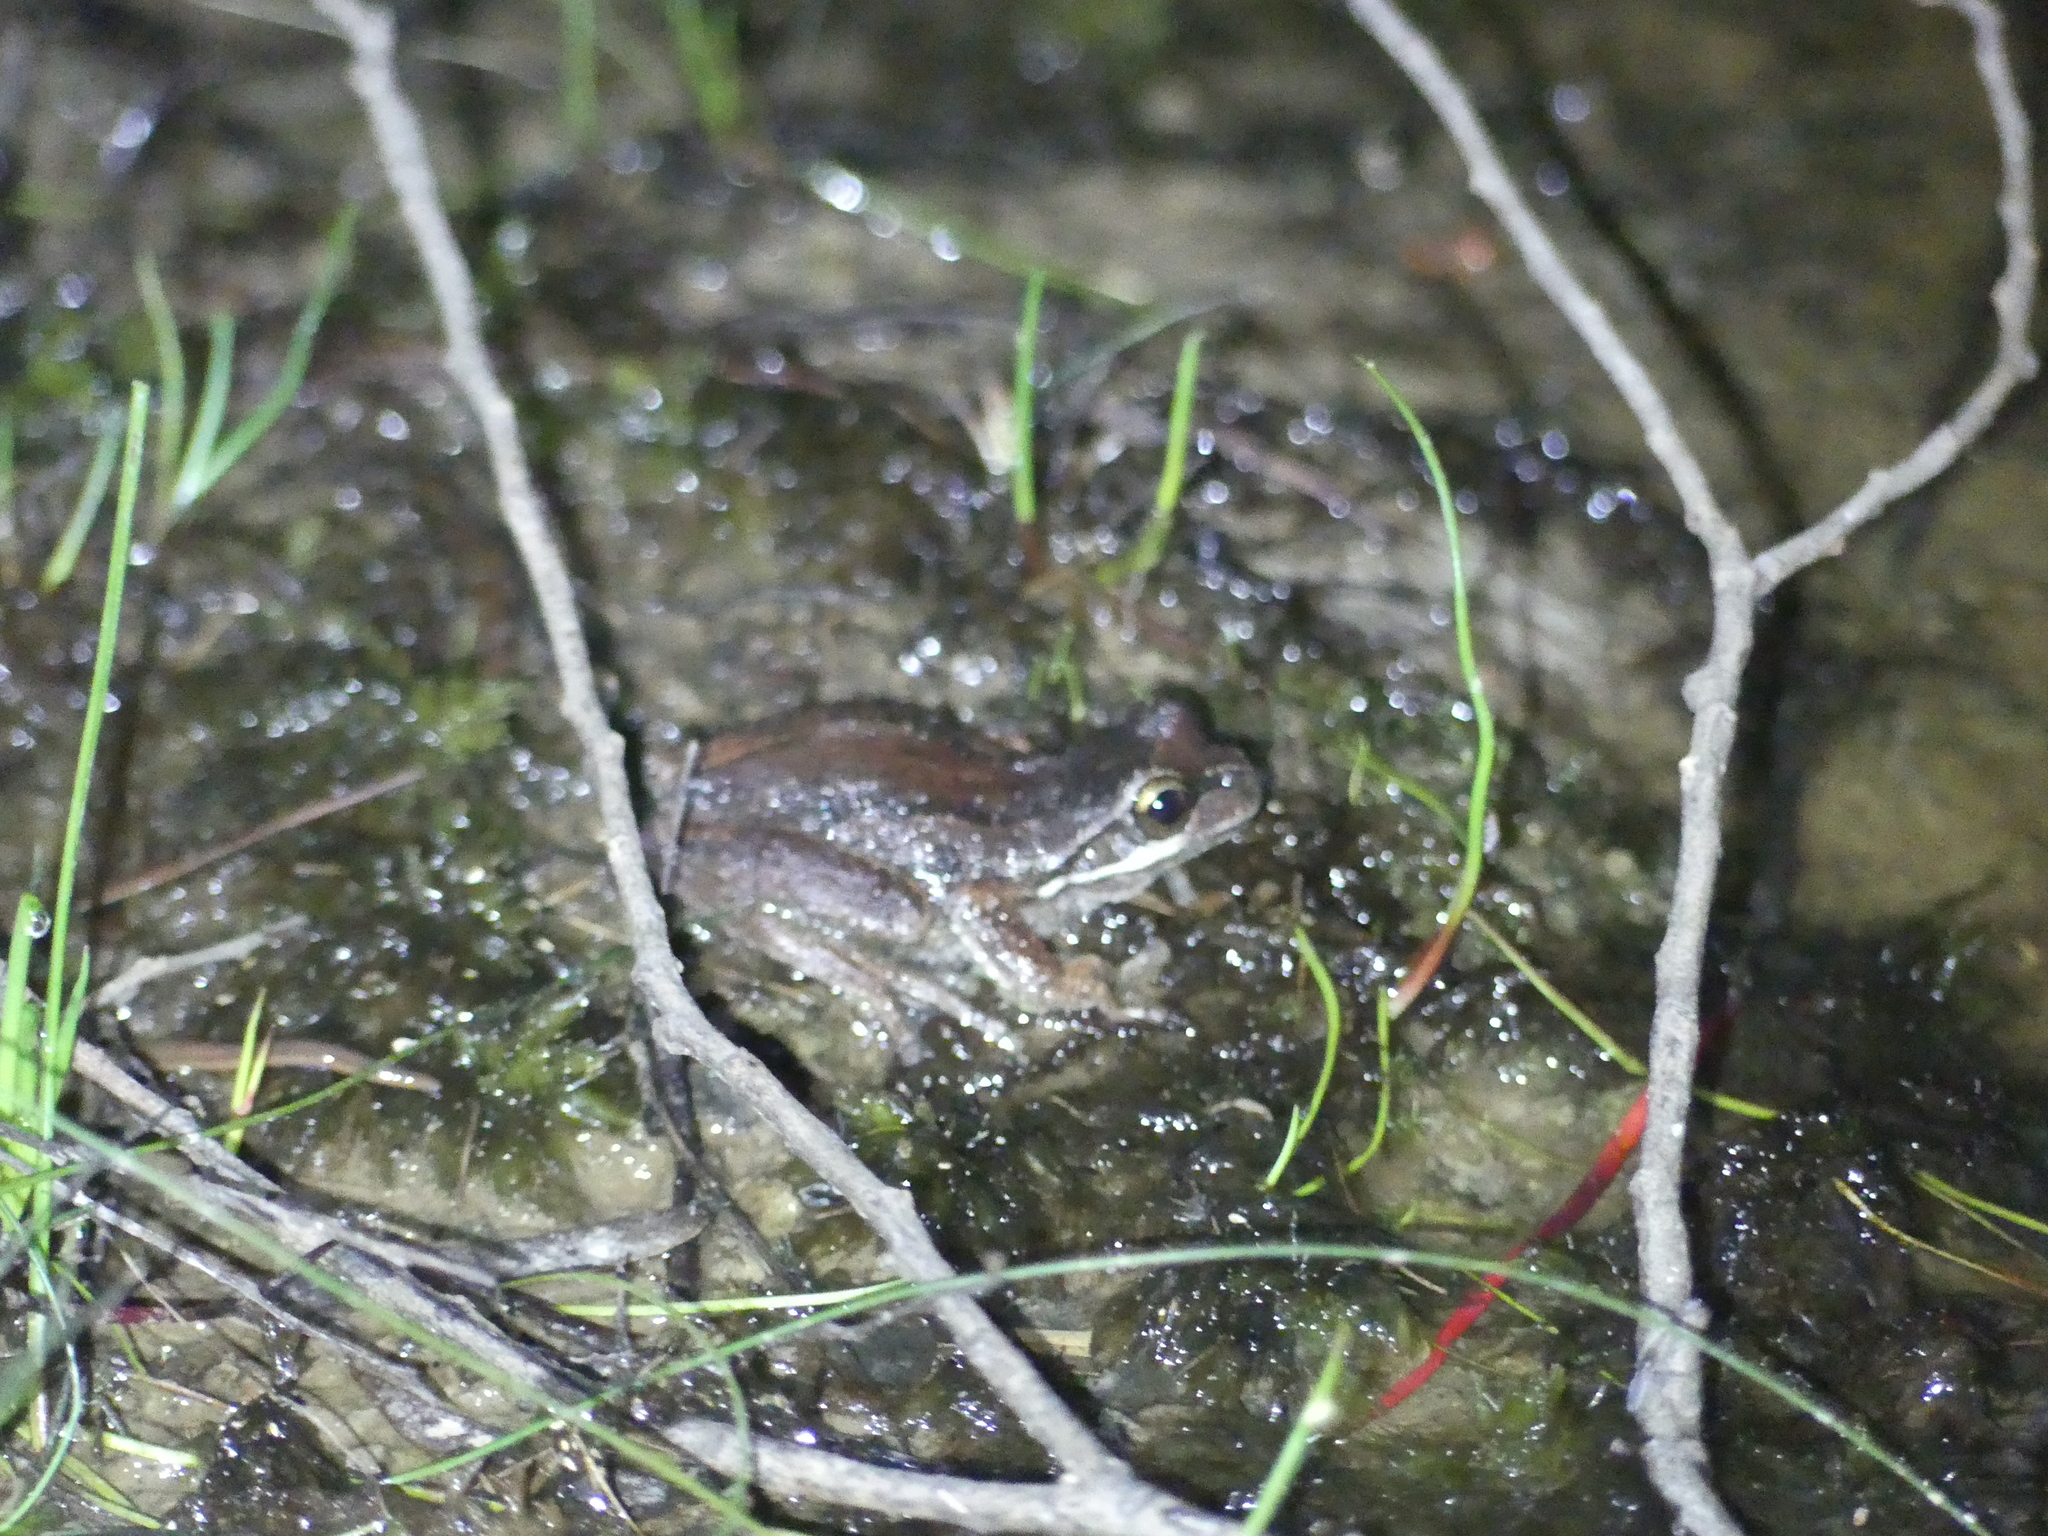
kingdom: Animalia
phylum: Chordata
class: Amphibia
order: Anura
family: Pelodryadidae
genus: Litoria
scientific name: Litoria ewingii
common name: Southern brown tree frog
